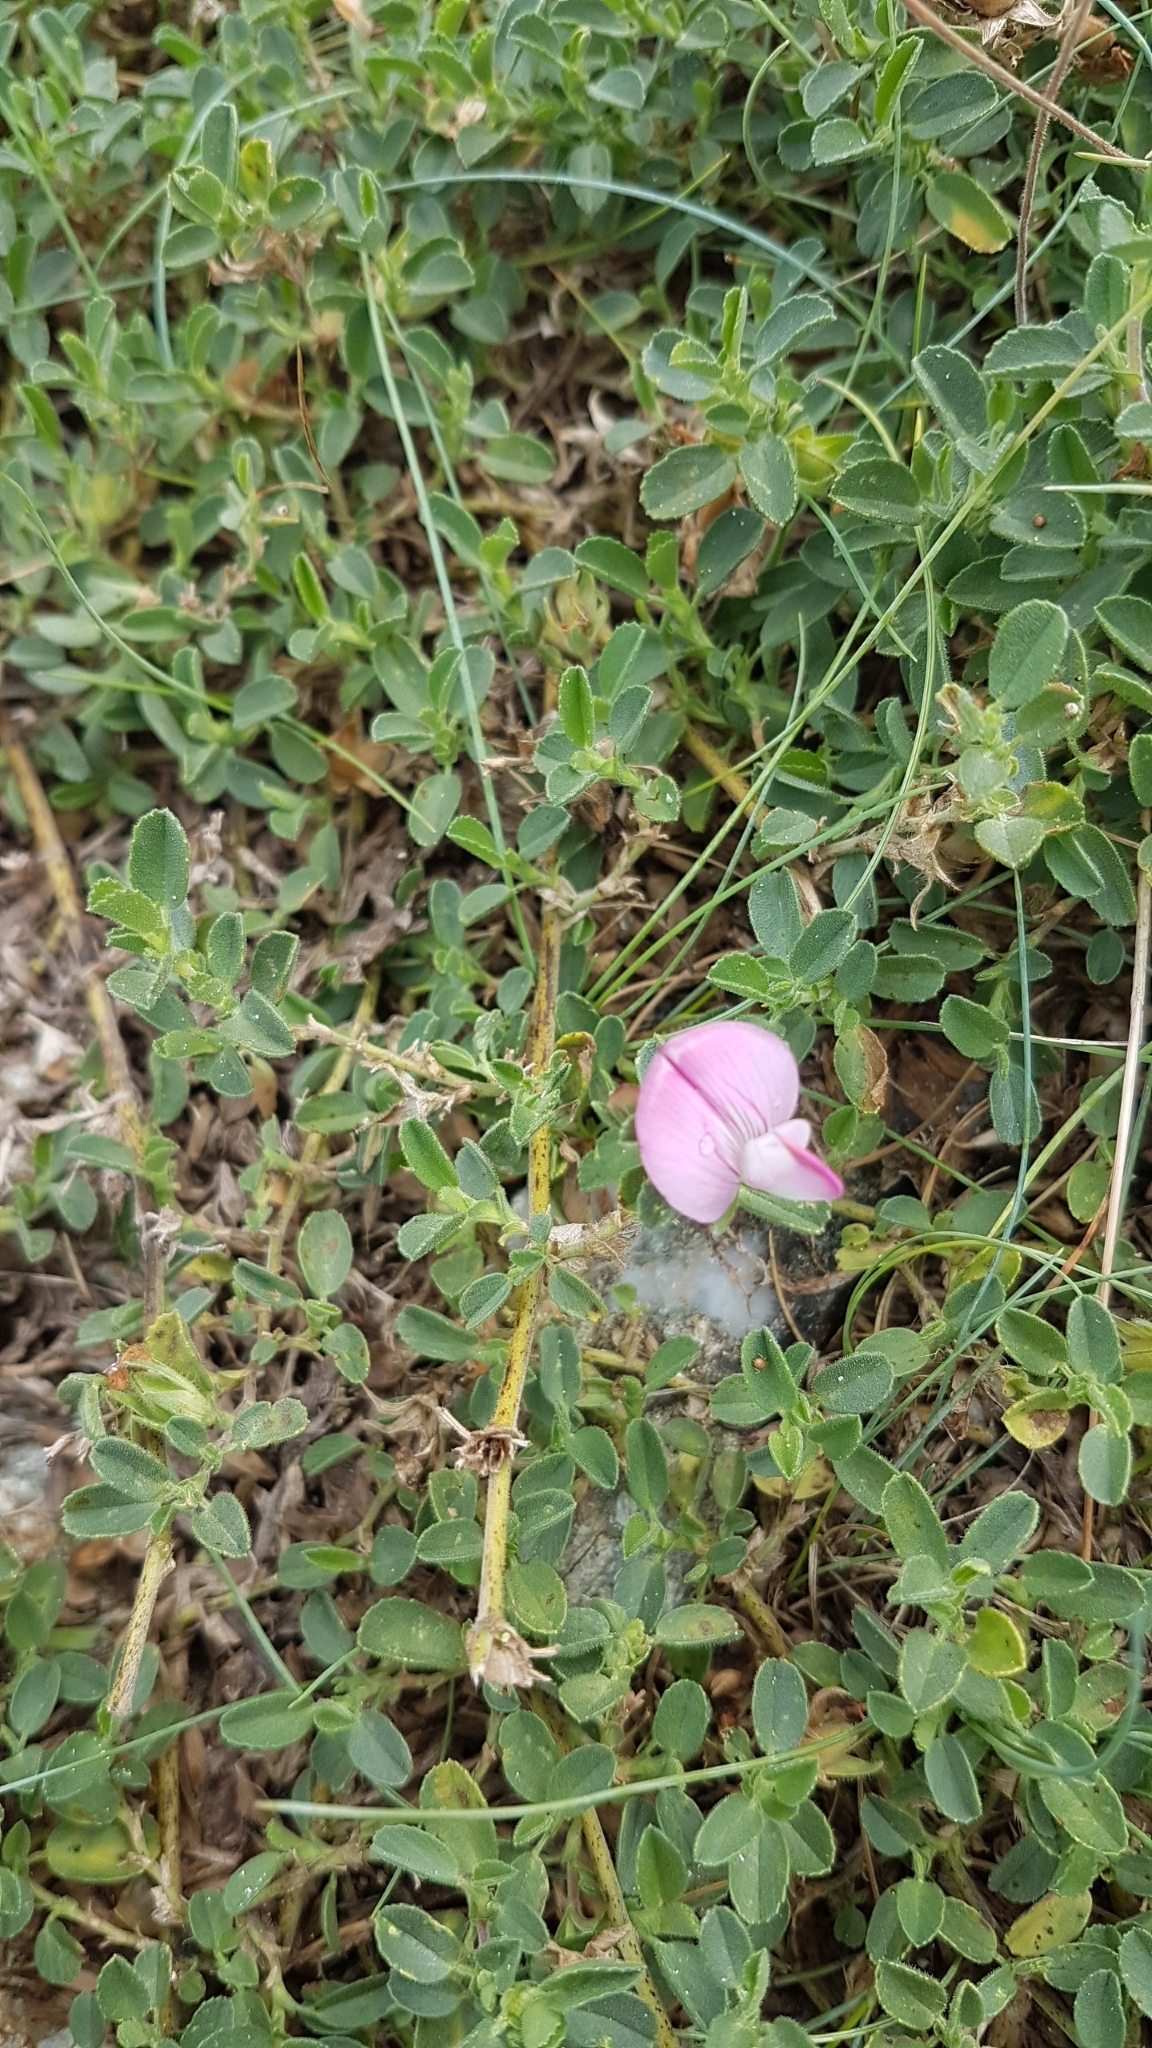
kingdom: Plantae
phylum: Tracheophyta
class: Magnoliopsida
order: Fabales
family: Fabaceae
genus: Ononis
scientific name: Ononis spinosa
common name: Spiny restharrow
